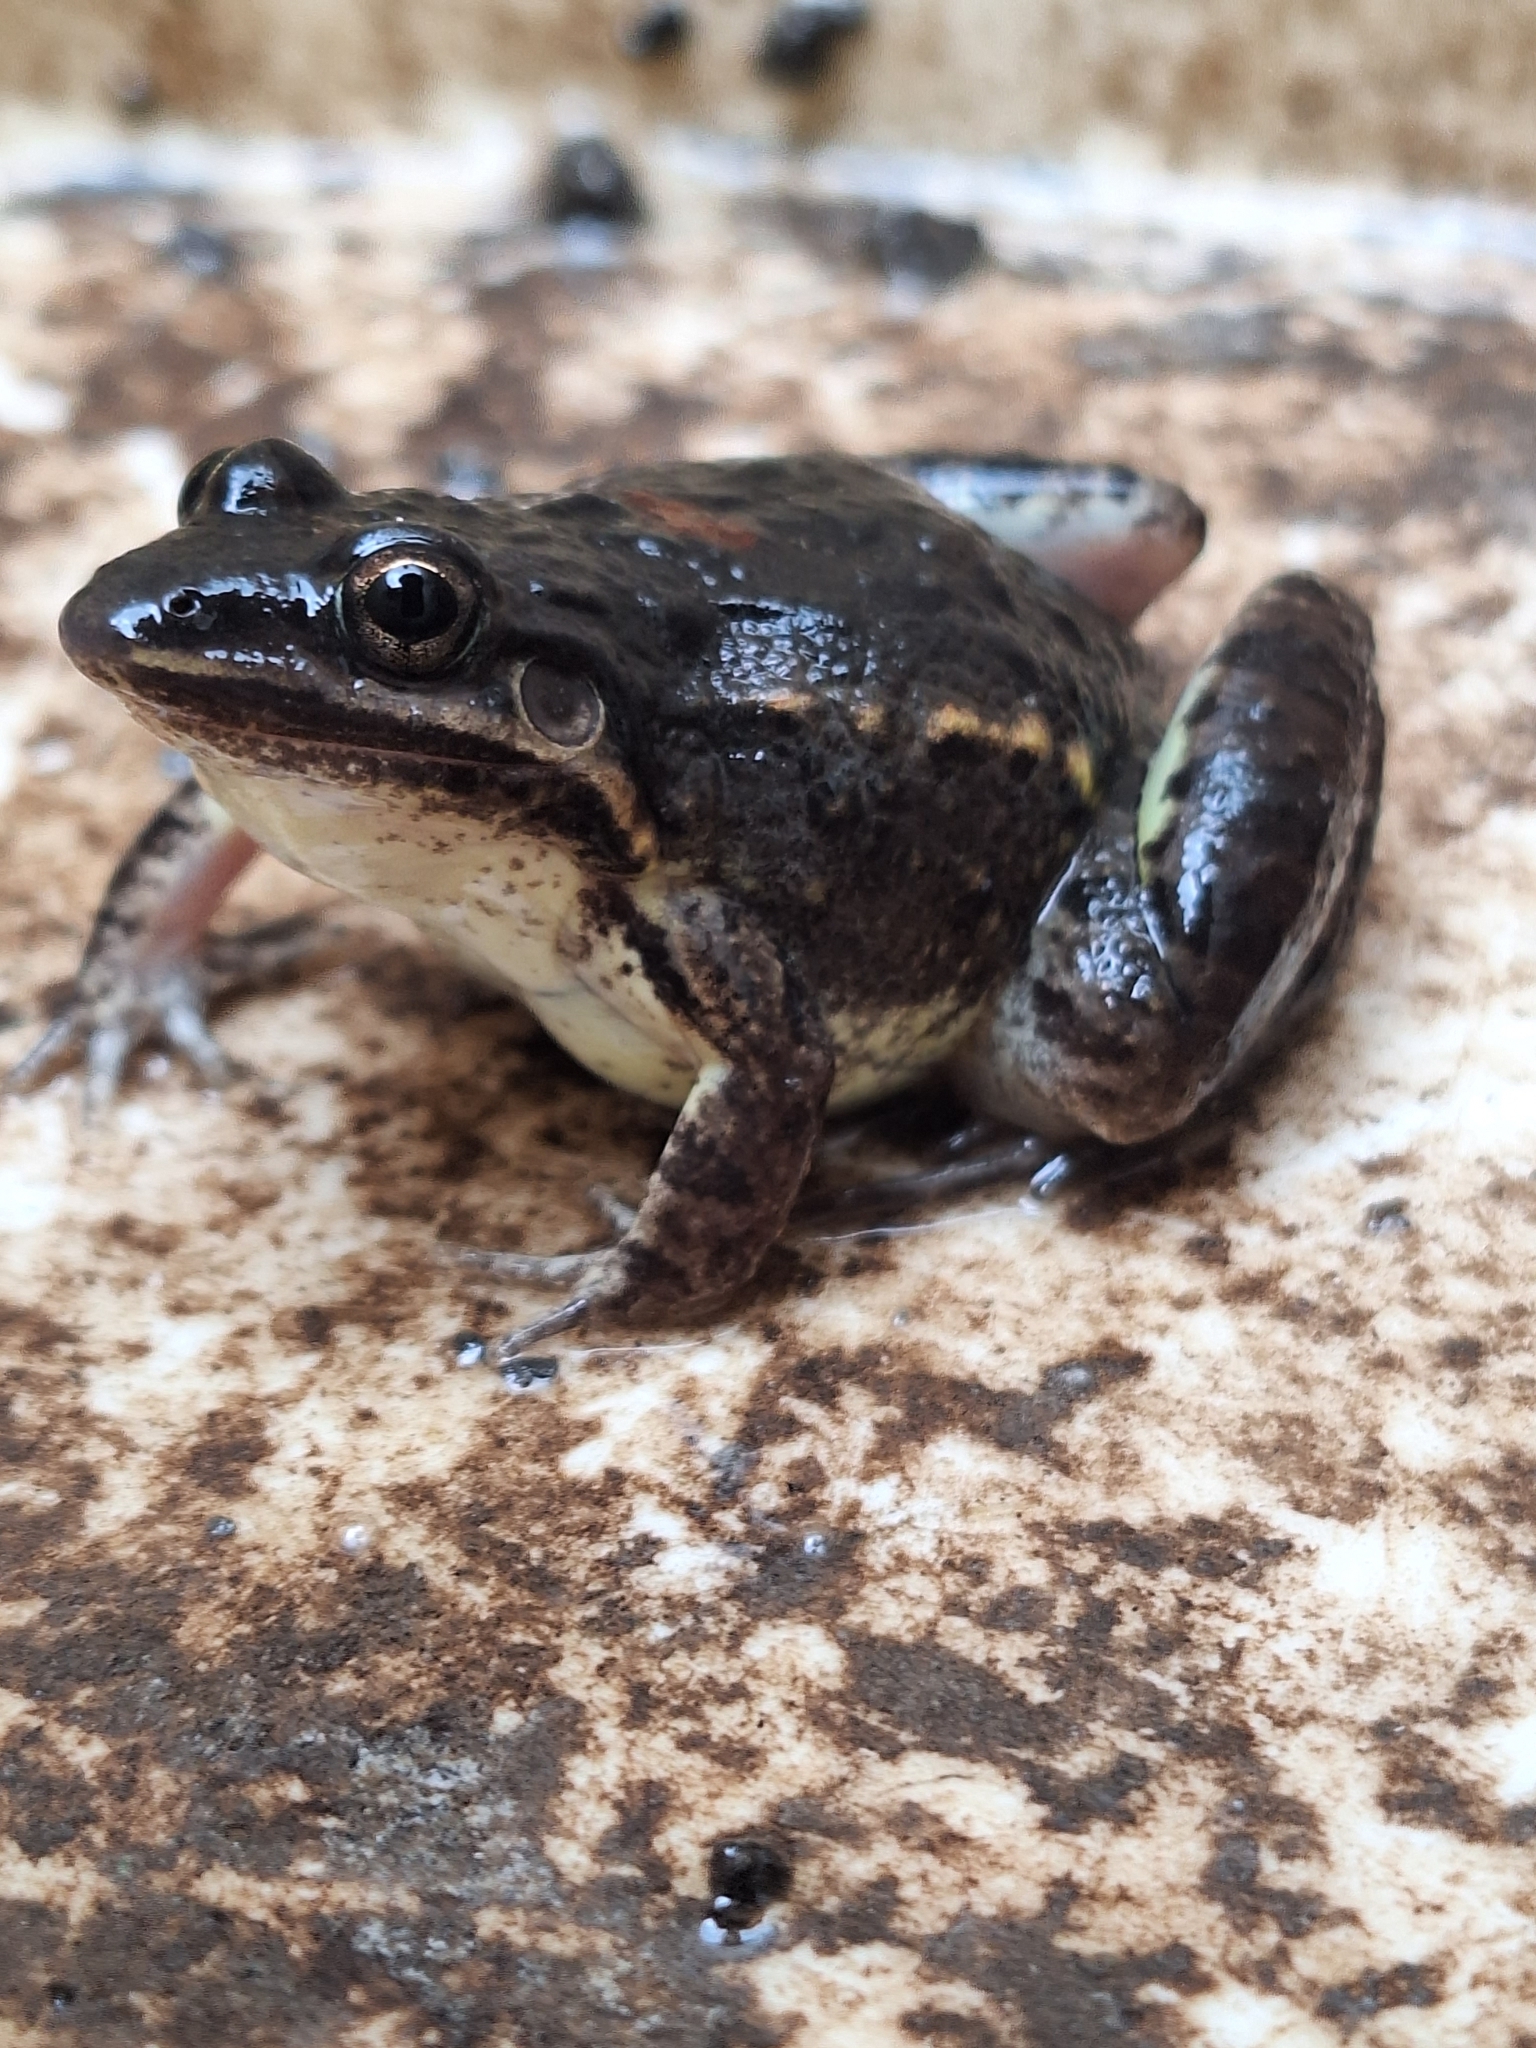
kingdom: Animalia
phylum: Chordata
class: Amphibia
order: Anura
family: Leptodactylidae
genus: Leptodactylus
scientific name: Leptodactylus latinasus
